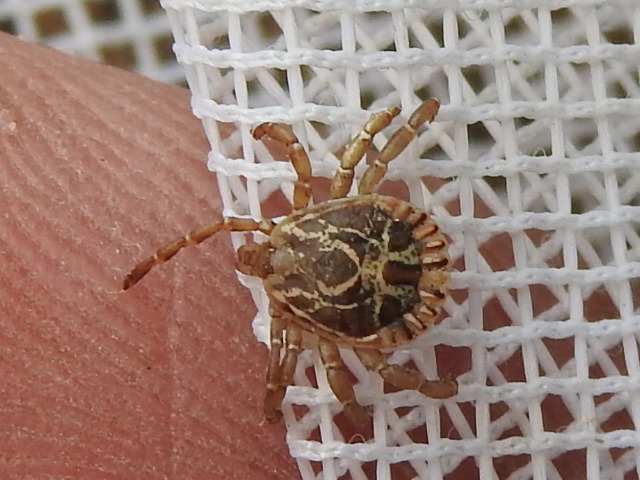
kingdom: Animalia
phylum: Arthropoda
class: Arachnida
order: Ixodida
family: Ixodidae
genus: Amblyomma
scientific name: Amblyomma cajennense
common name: Cayenne tick
